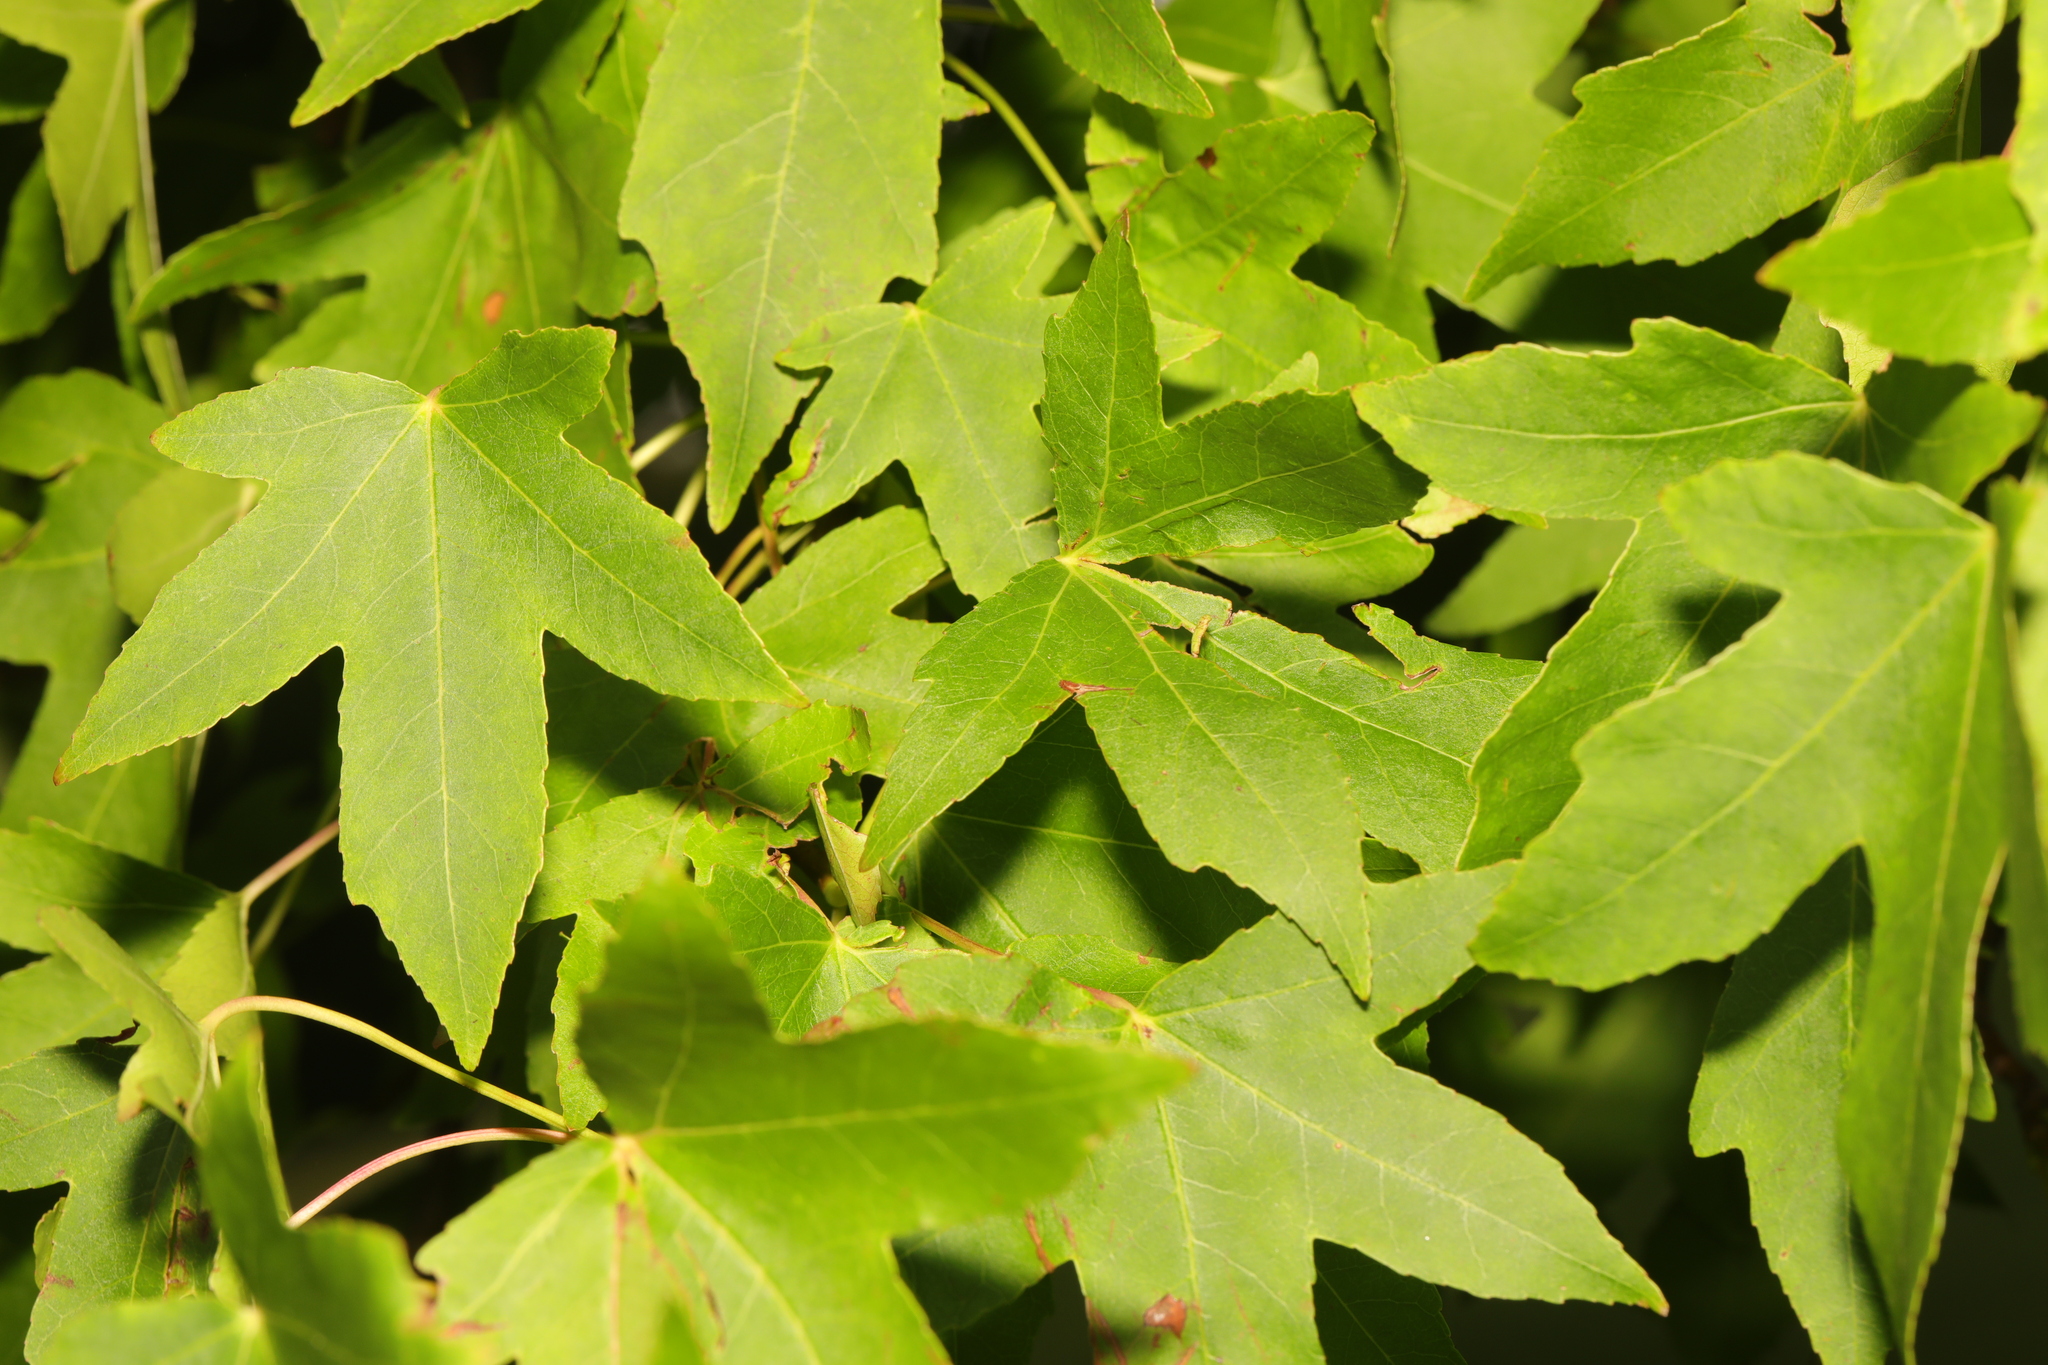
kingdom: Plantae
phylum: Tracheophyta
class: Magnoliopsida
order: Saxifragales
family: Altingiaceae
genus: Liquidambar
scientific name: Liquidambar styraciflua
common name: Sweet gum
